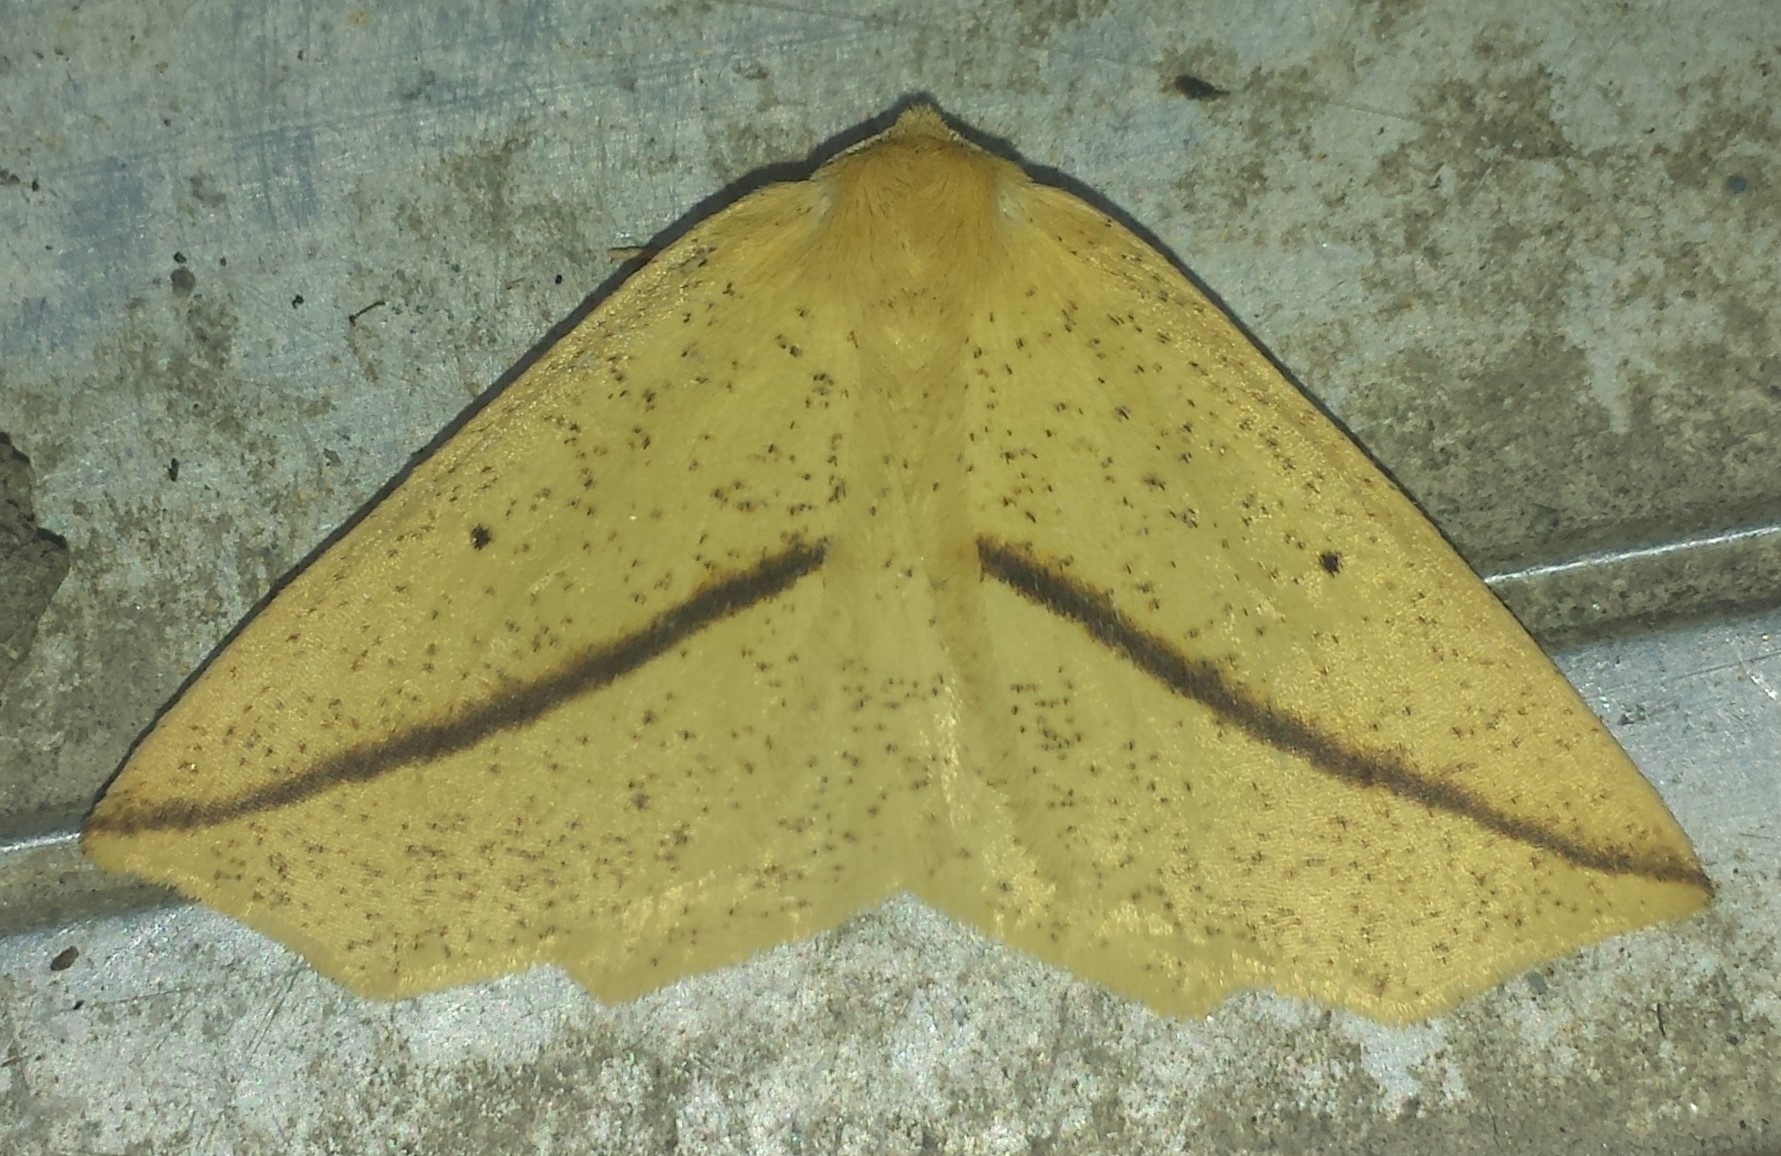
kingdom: Animalia
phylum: Arthropoda
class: Insecta
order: Lepidoptera
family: Geometridae
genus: Tetracis
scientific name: Tetracis crocallata
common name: Yellow slant-line
